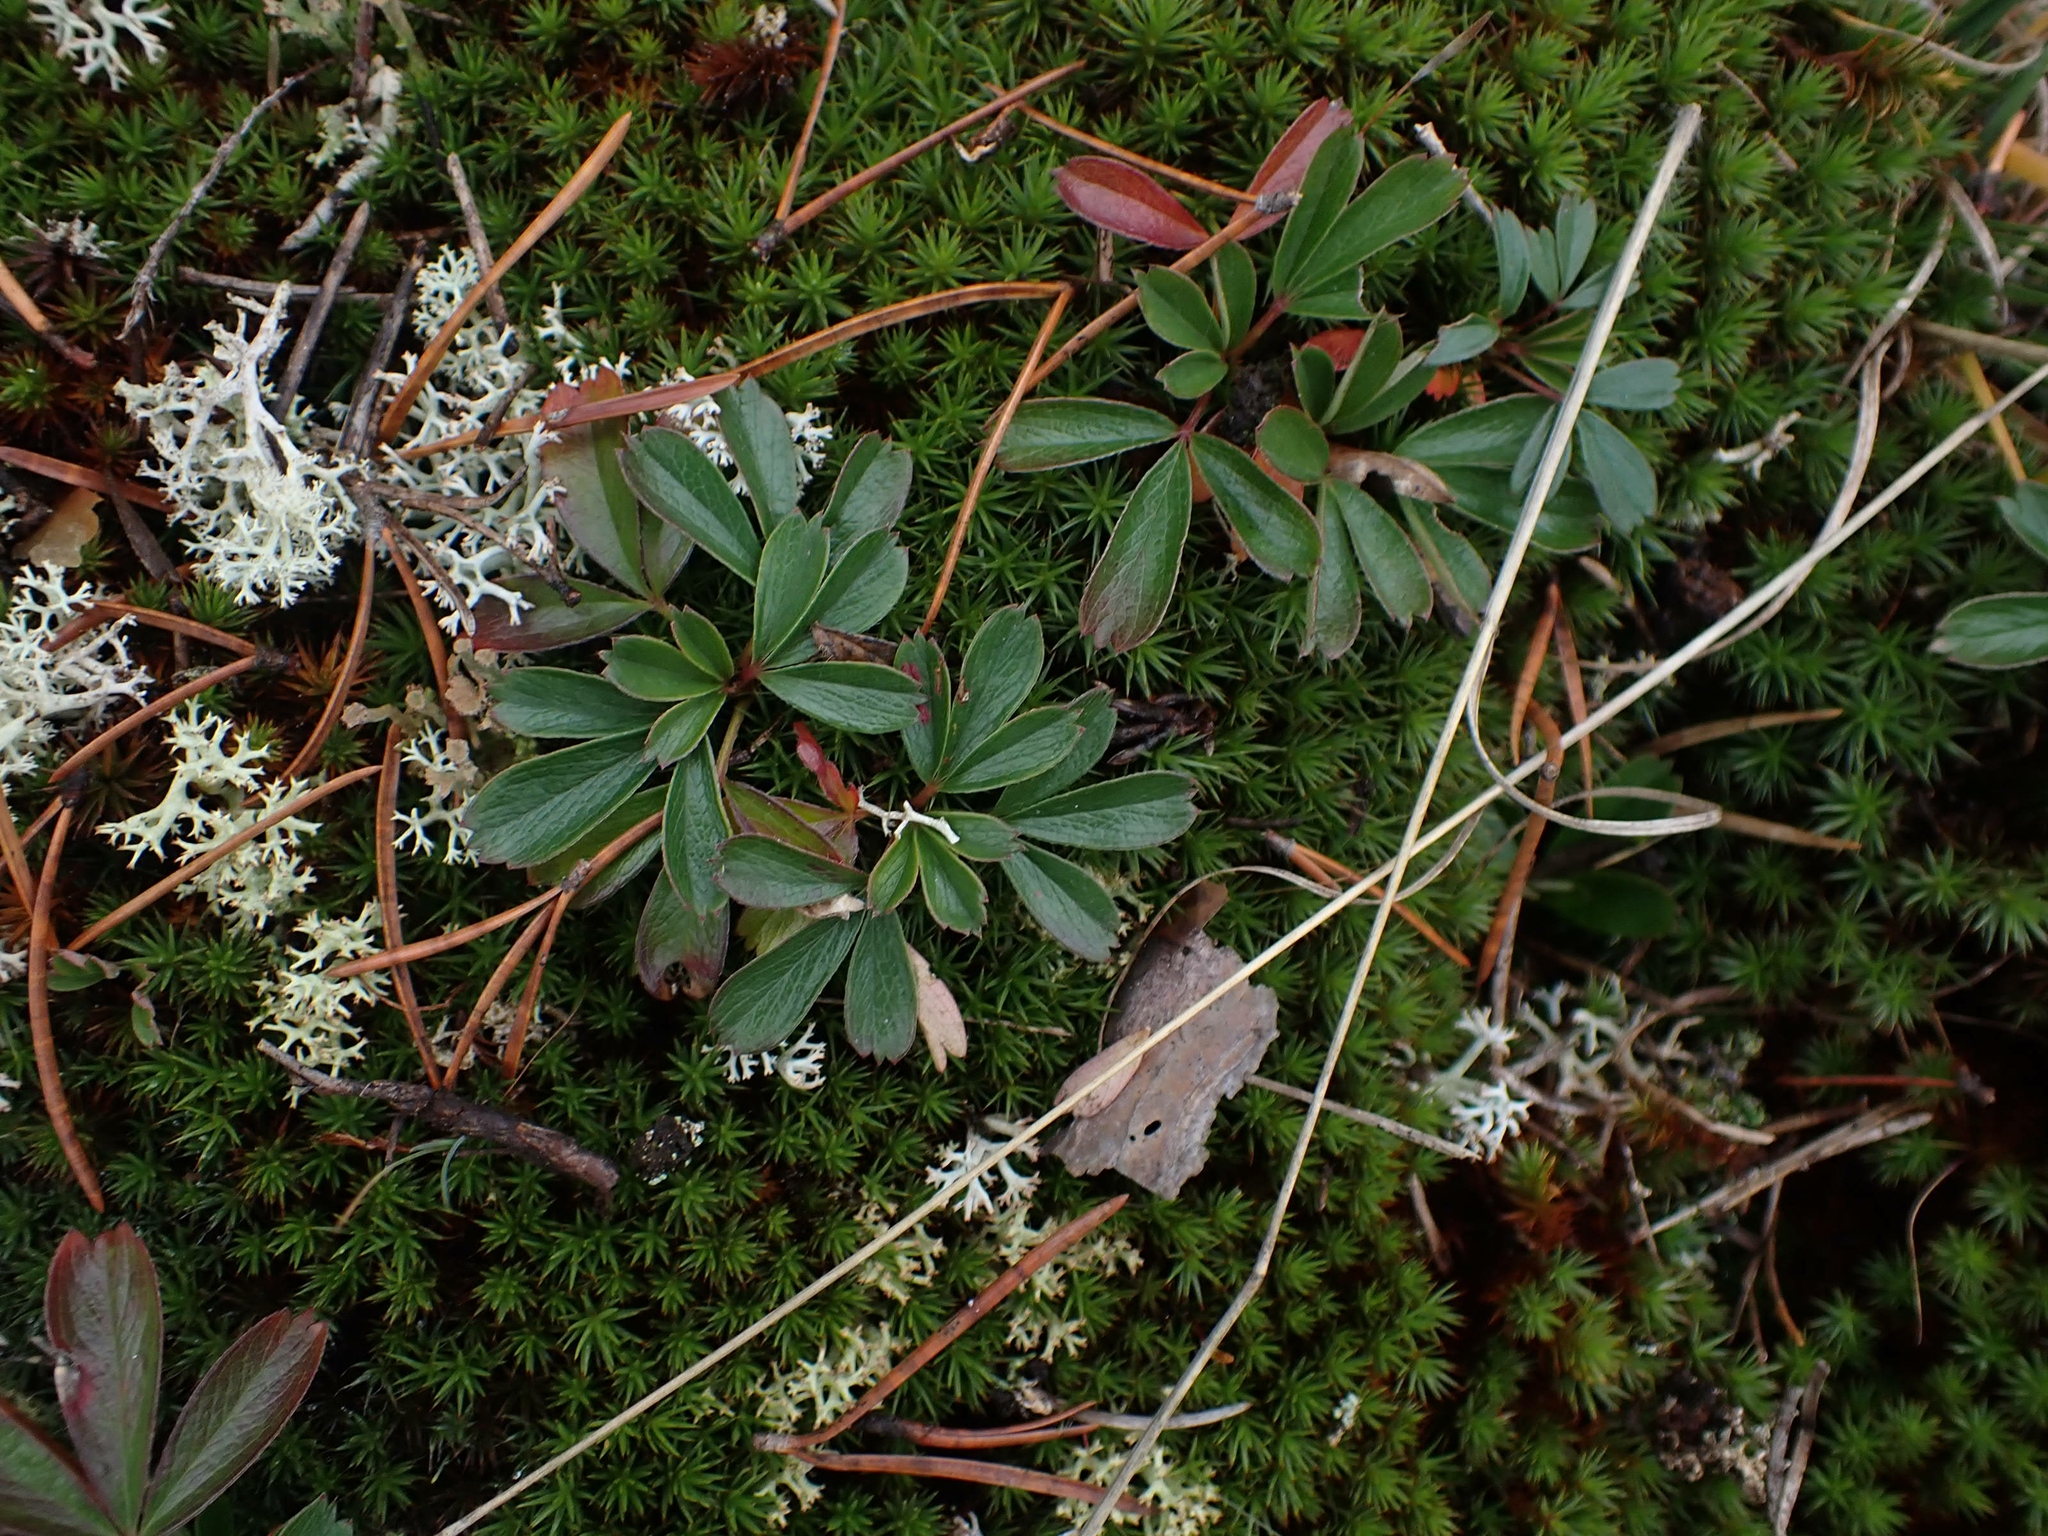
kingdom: Plantae
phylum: Tracheophyta
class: Magnoliopsida
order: Rosales
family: Rosaceae
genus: Sibbaldia
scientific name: Sibbaldia tridentata
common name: Three-toothed cinquefoil
